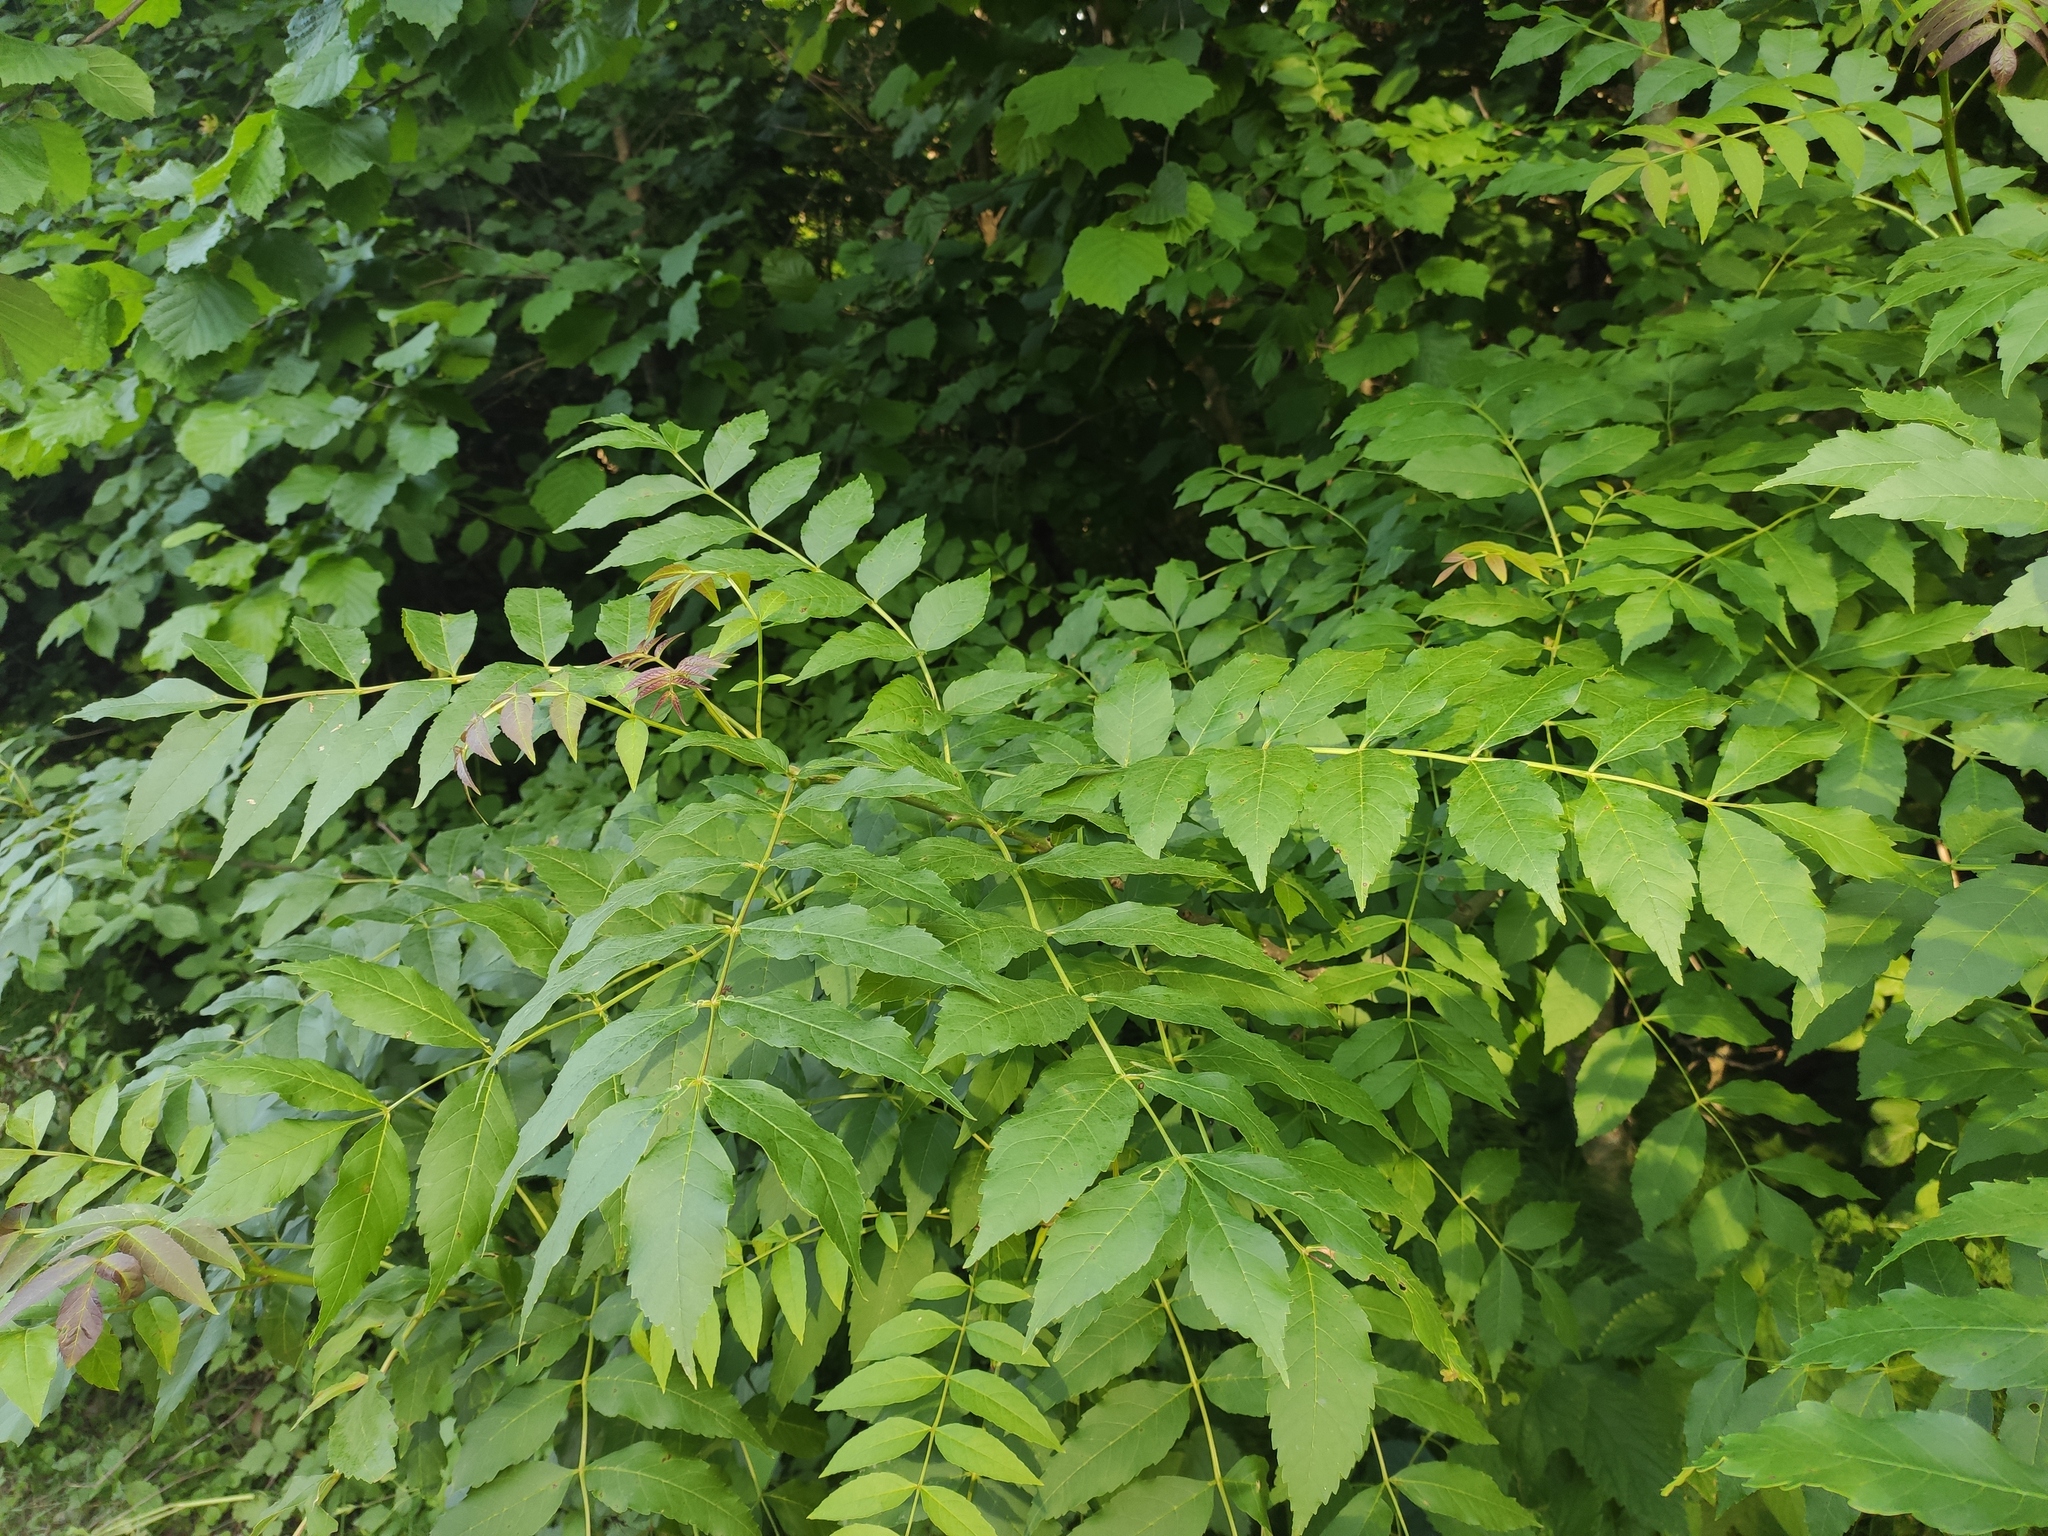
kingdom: Plantae
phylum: Tracheophyta
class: Magnoliopsida
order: Lamiales
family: Oleaceae
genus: Fraxinus
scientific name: Fraxinus excelsior
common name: European ash
